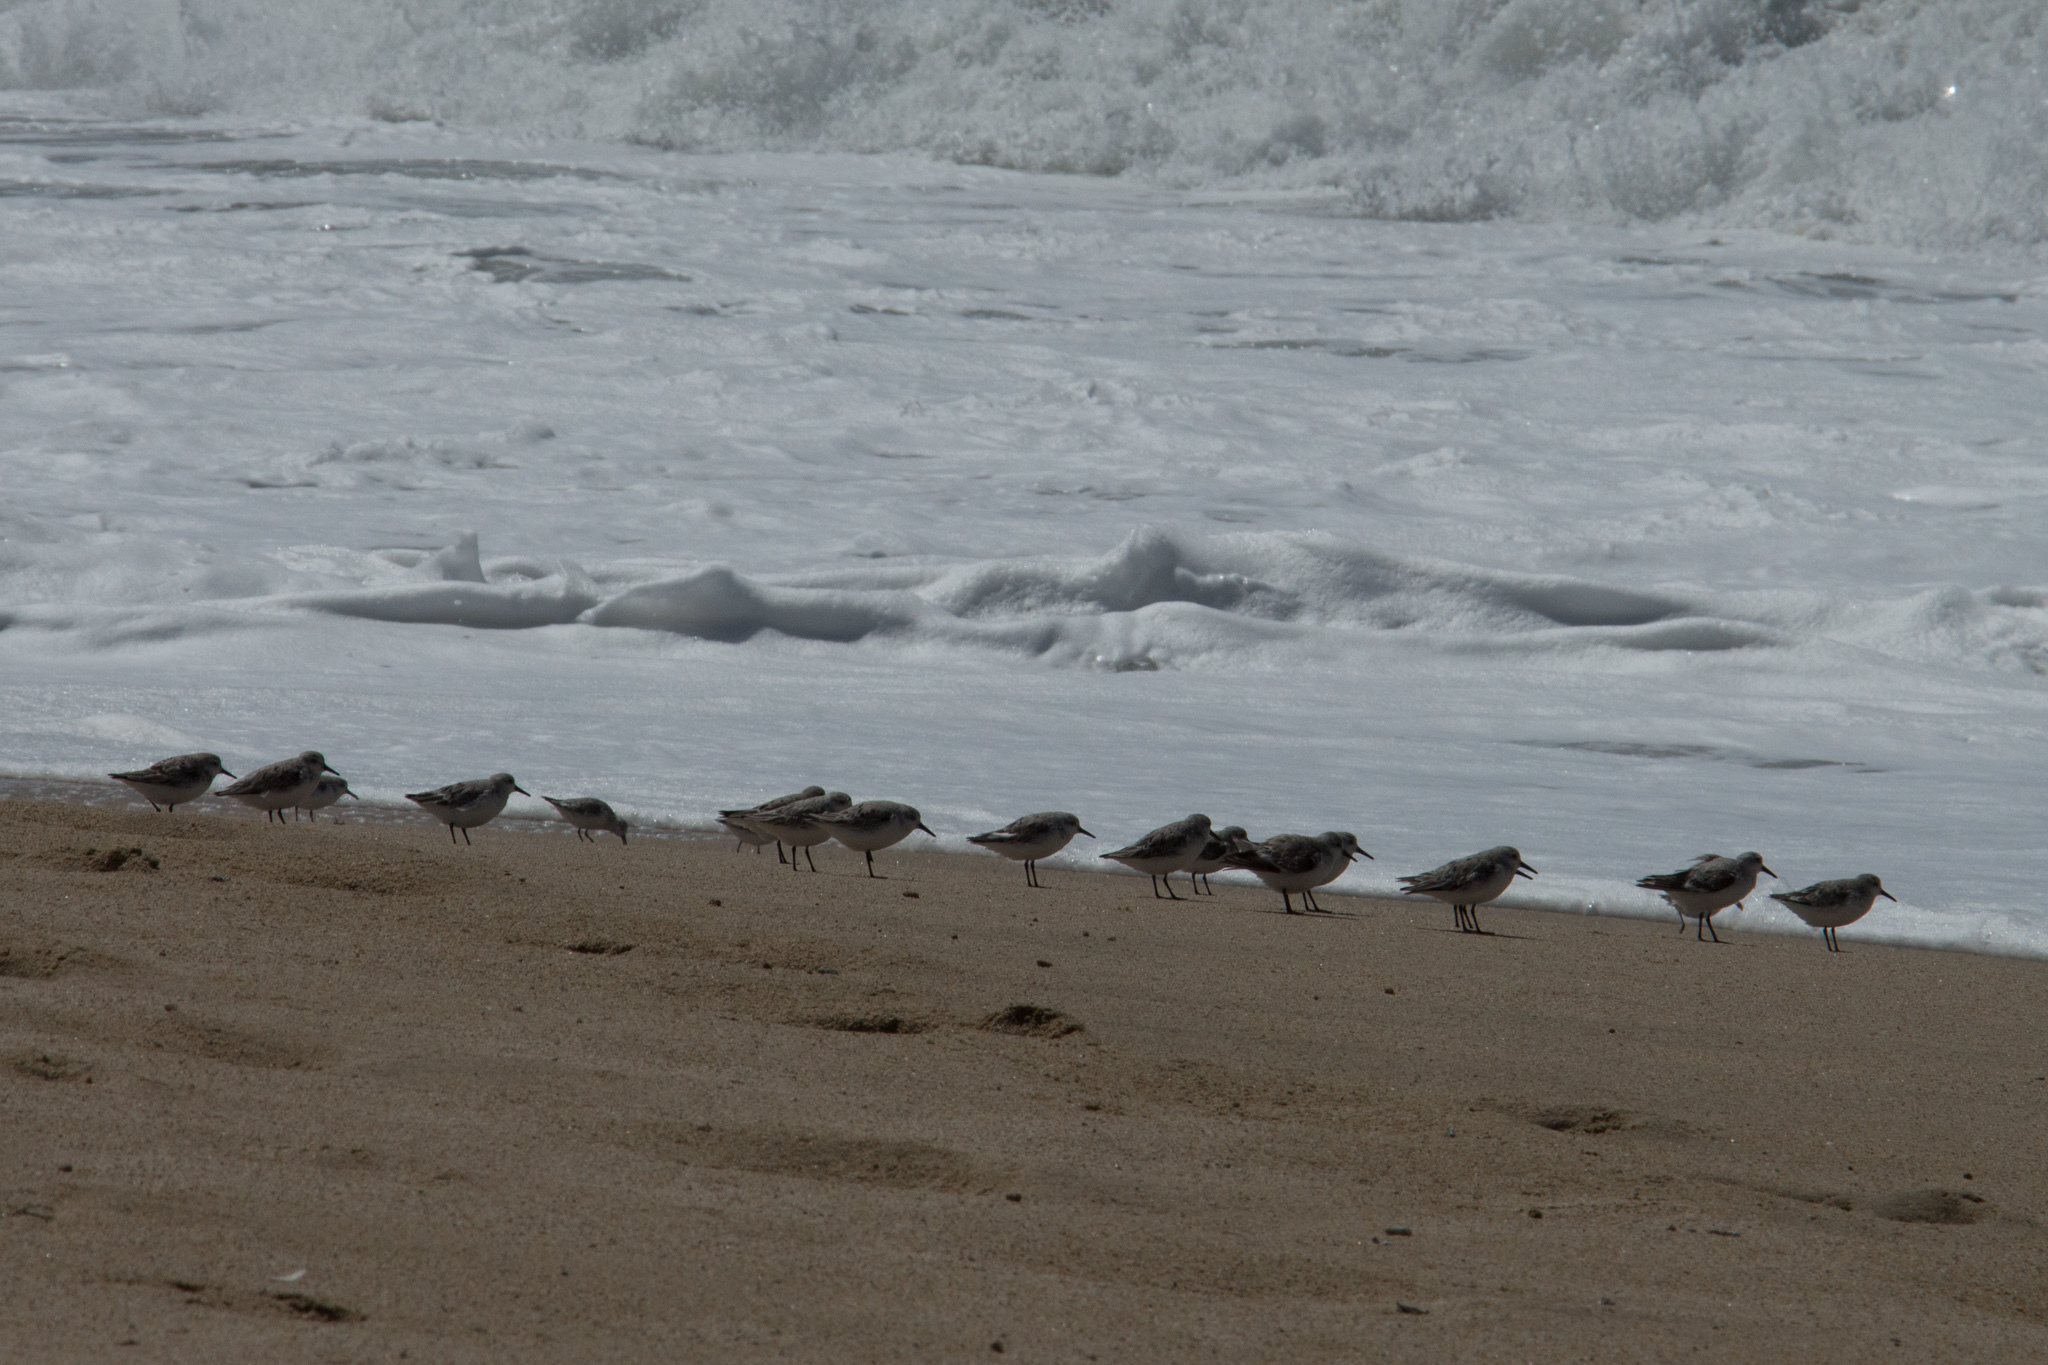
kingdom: Animalia
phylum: Chordata
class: Aves
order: Charadriiformes
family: Scolopacidae
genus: Calidris
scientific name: Calidris mauri
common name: Western sandpiper
